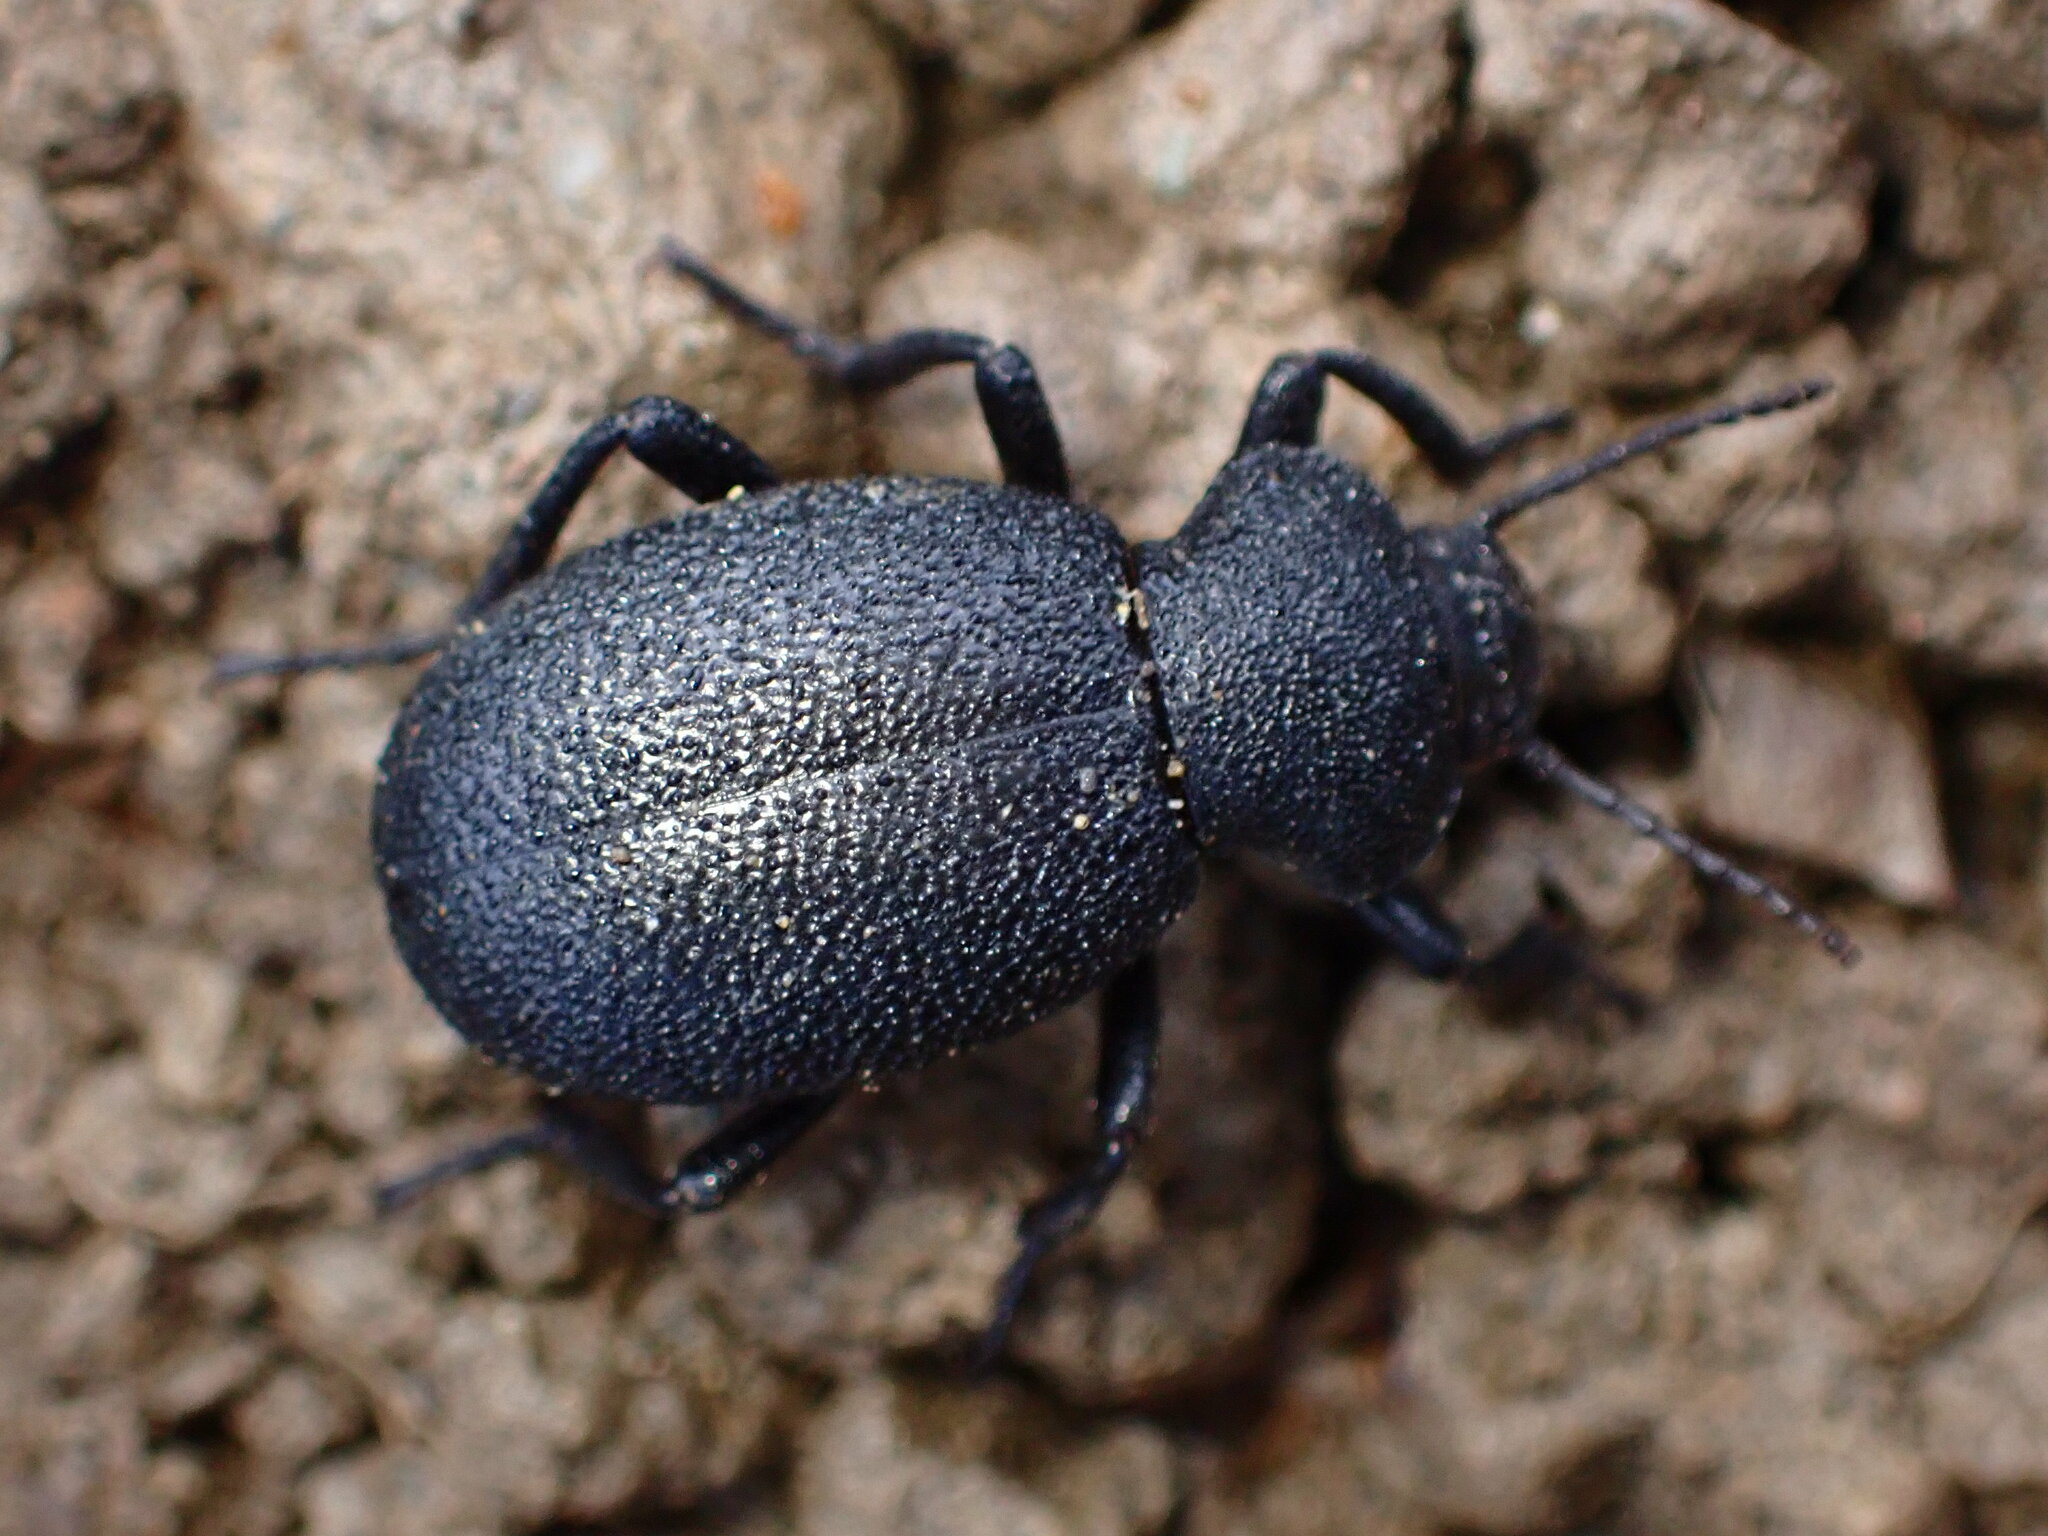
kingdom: Animalia
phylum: Arthropoda
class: Insecta
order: Coleoptera
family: Tenebrionidae
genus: Eleodes
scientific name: Eleodes cordata
